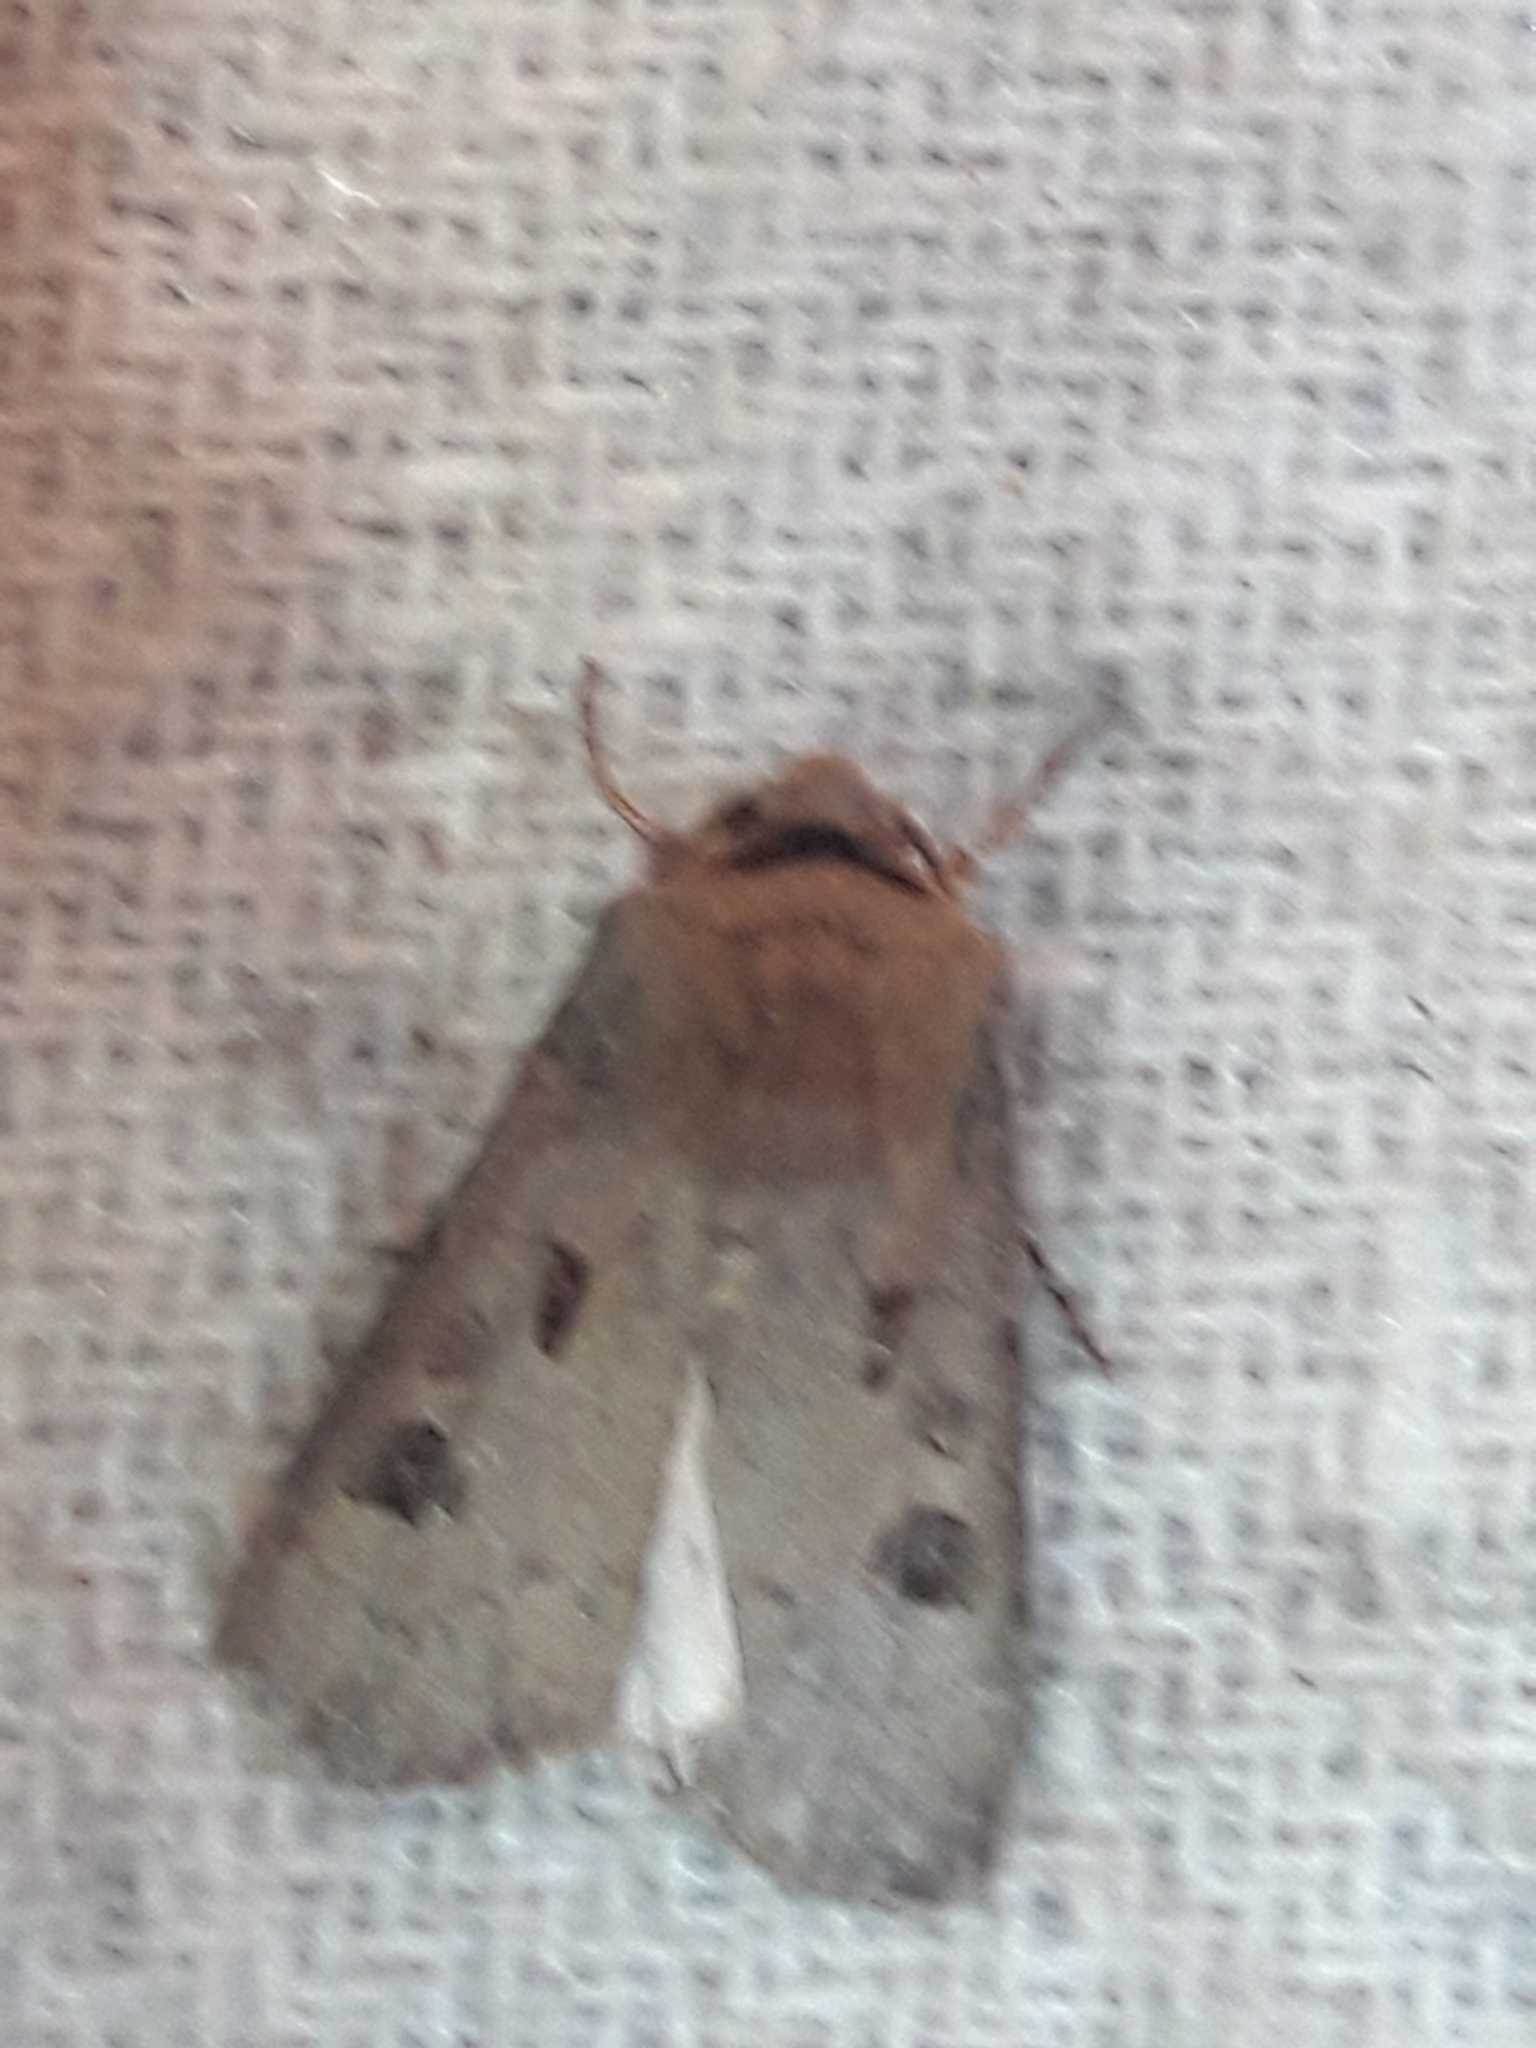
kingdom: Animalia
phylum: Arthropoda
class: Insecta
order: Lepidoptera
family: Noctuidae
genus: Agrotis
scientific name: Agrotis exclamationis
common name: Heart and dart
